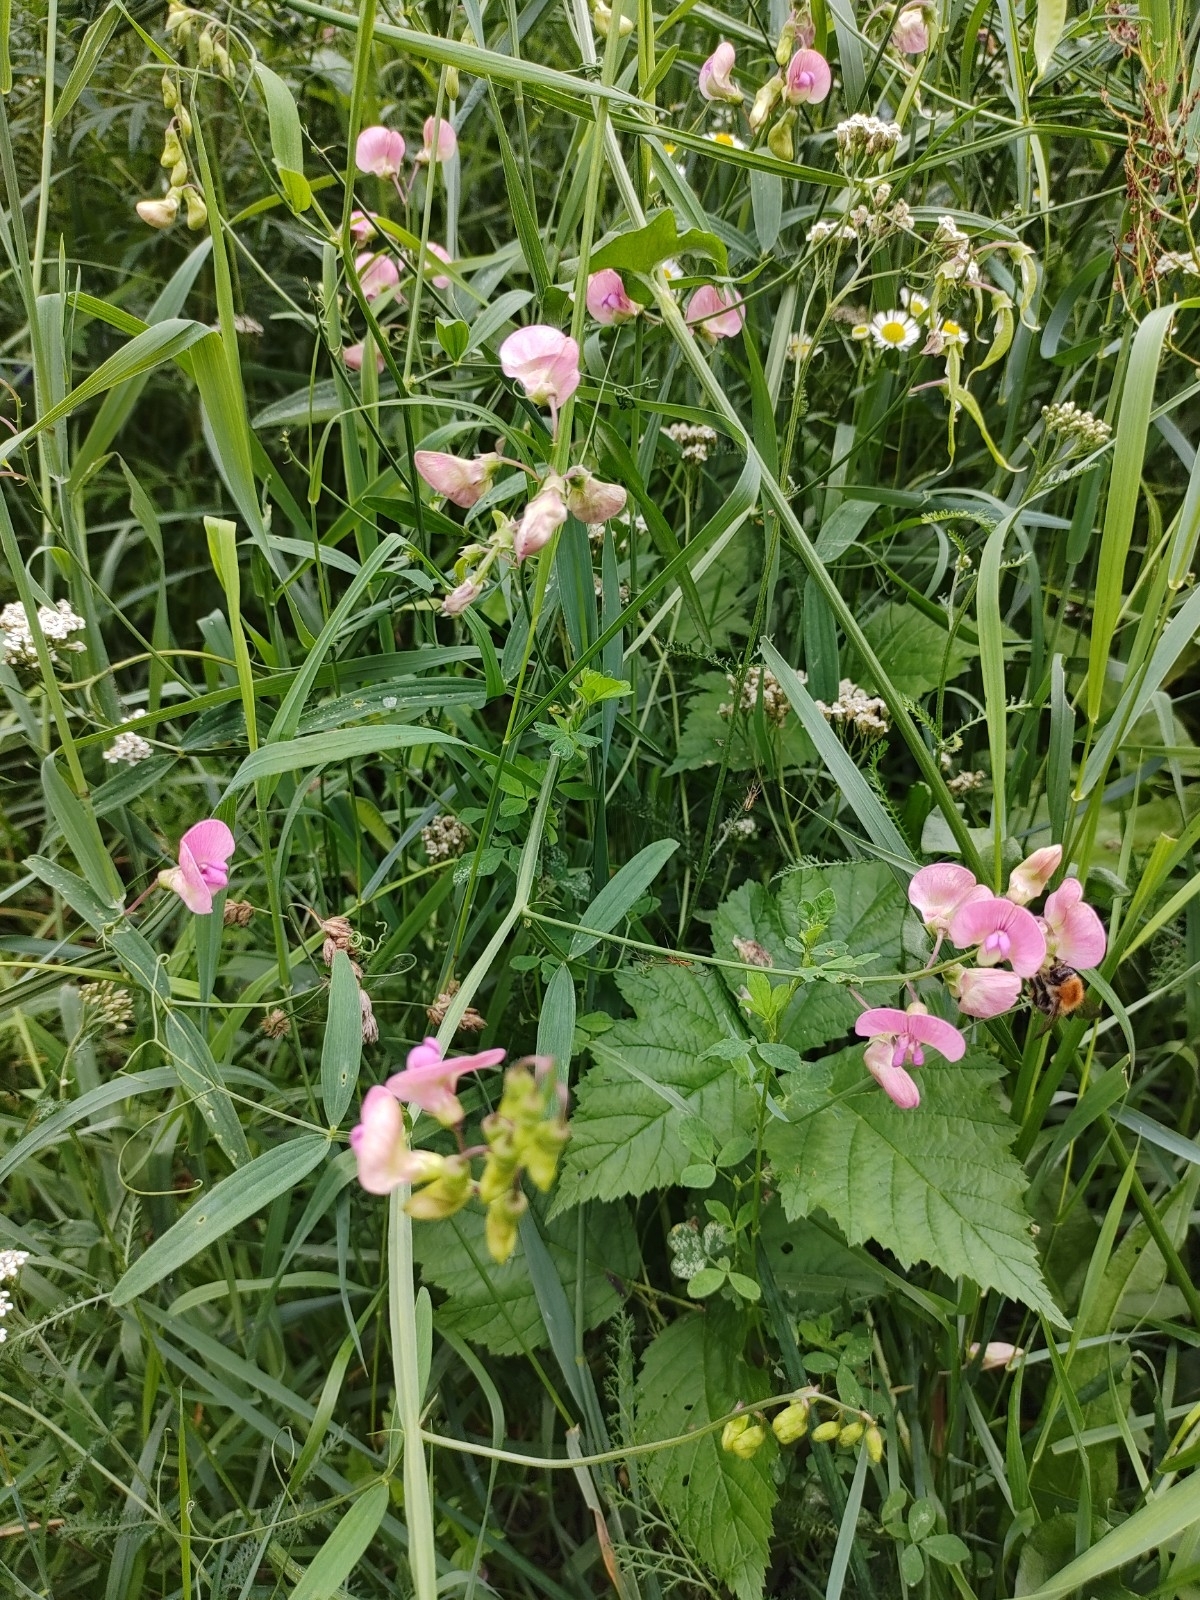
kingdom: Plantae
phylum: Tracheophyta
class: Magnoliopsida
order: Fabales
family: Fabaceae
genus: Lathyrus
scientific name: Lathyrus sylvestris
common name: Flat pea
